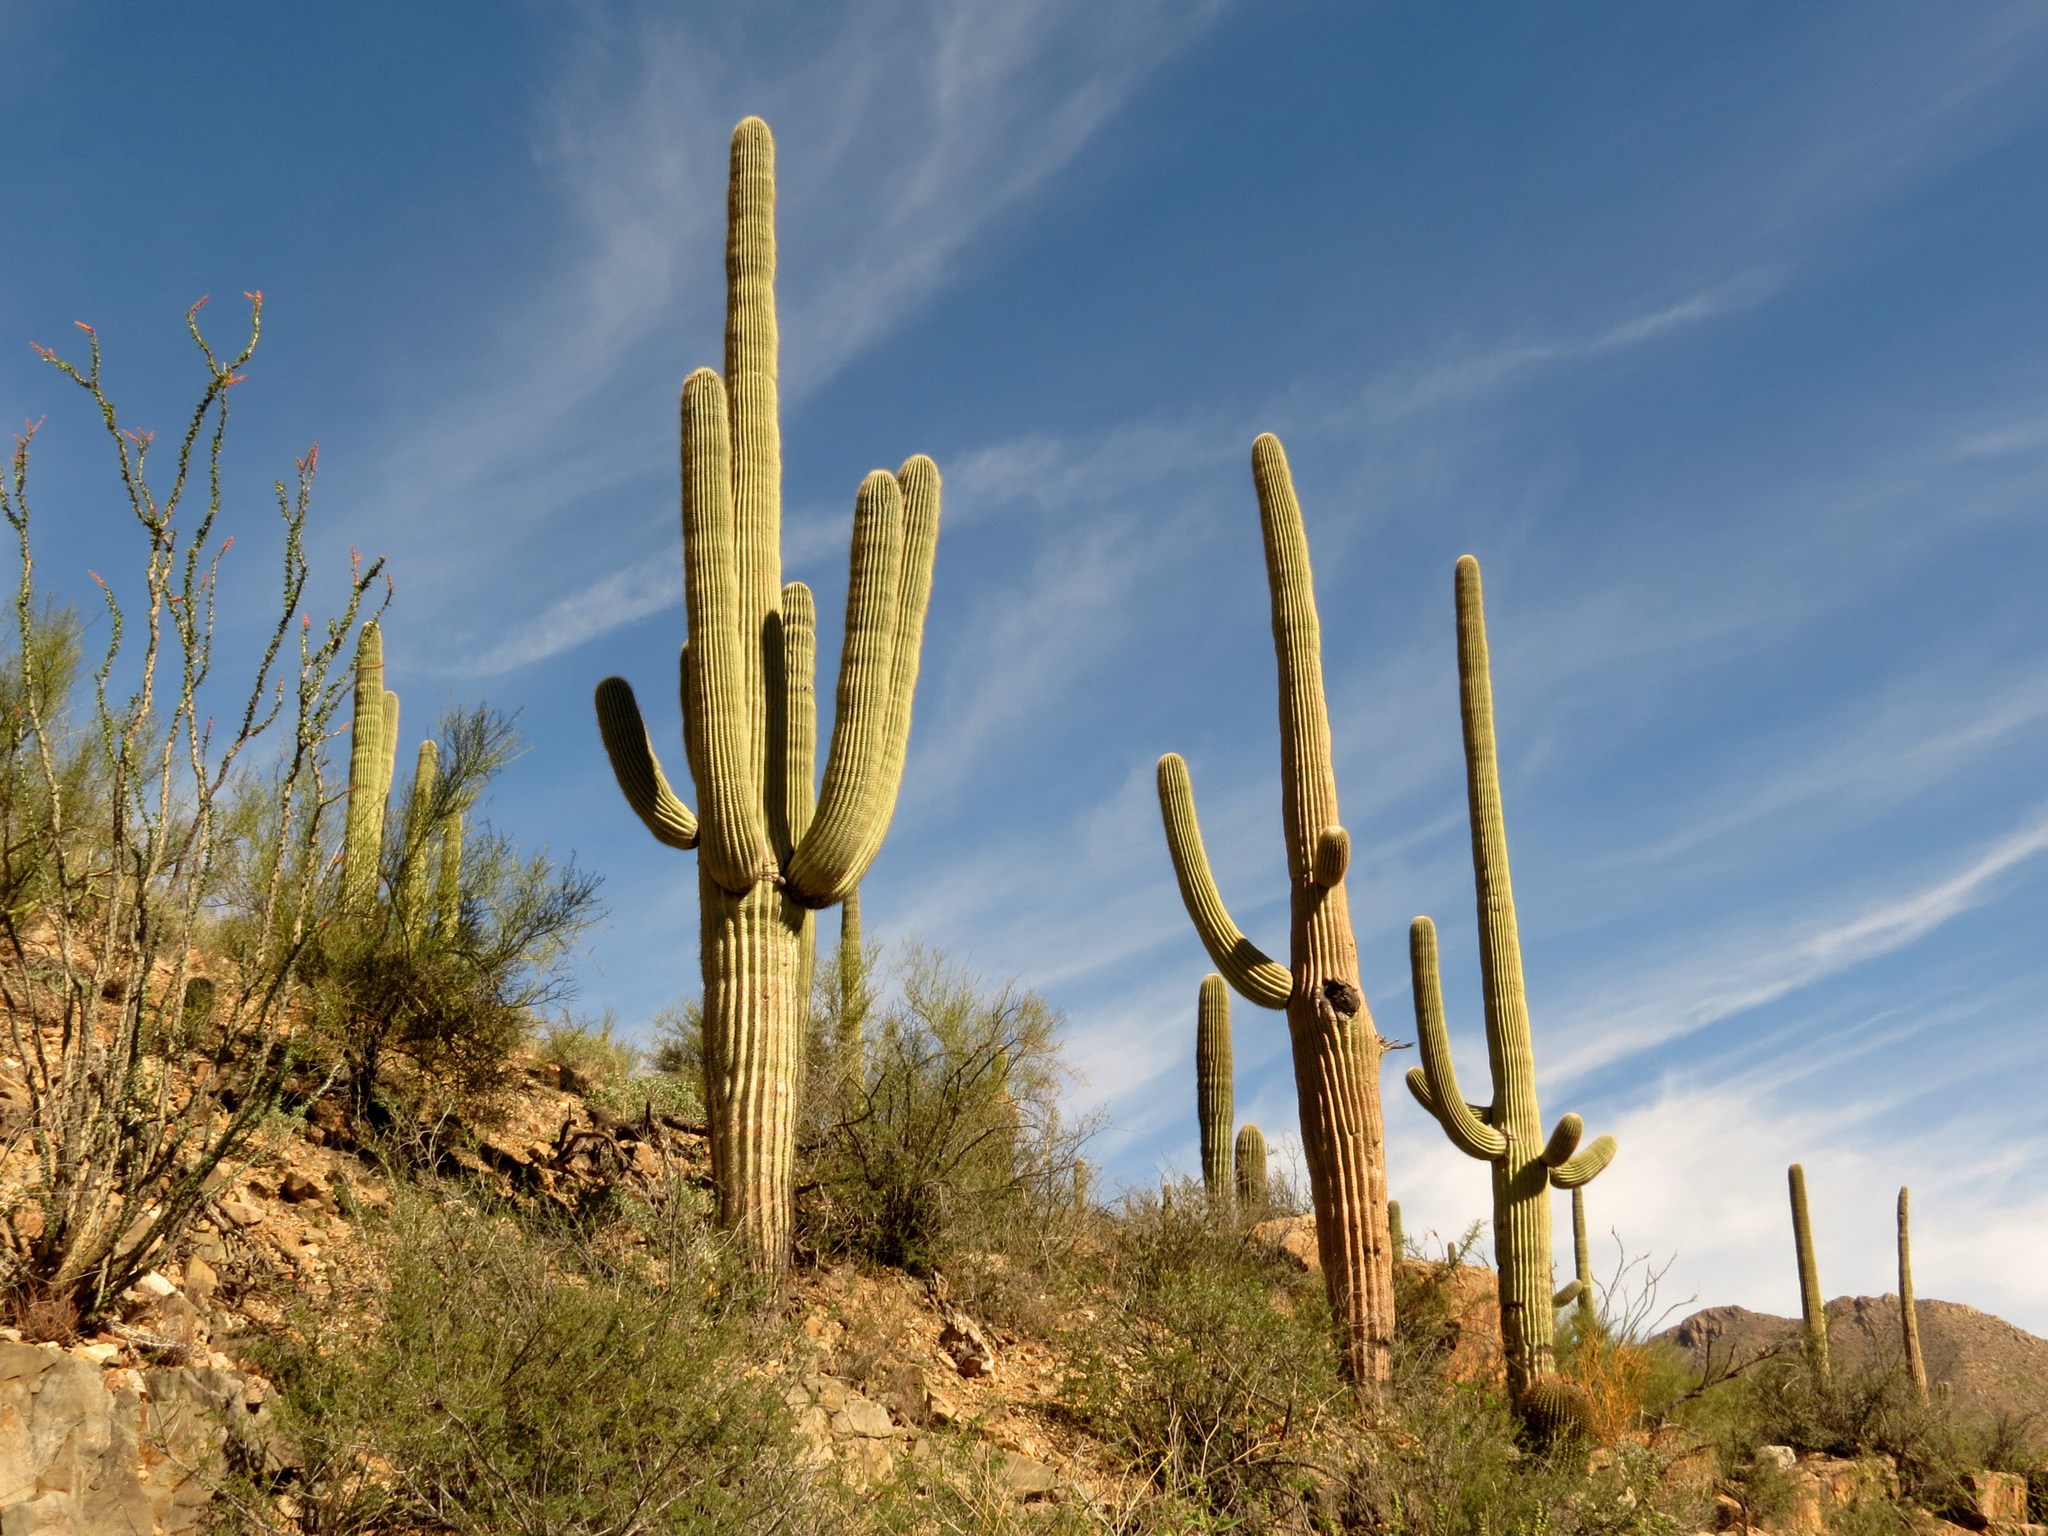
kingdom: Plantae
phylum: Tracheophyta
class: Magnoliopsida
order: Caryophyllales
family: Cactaceae
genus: Carnegiea
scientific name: Carnegiea gigantea
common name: Saguaro
